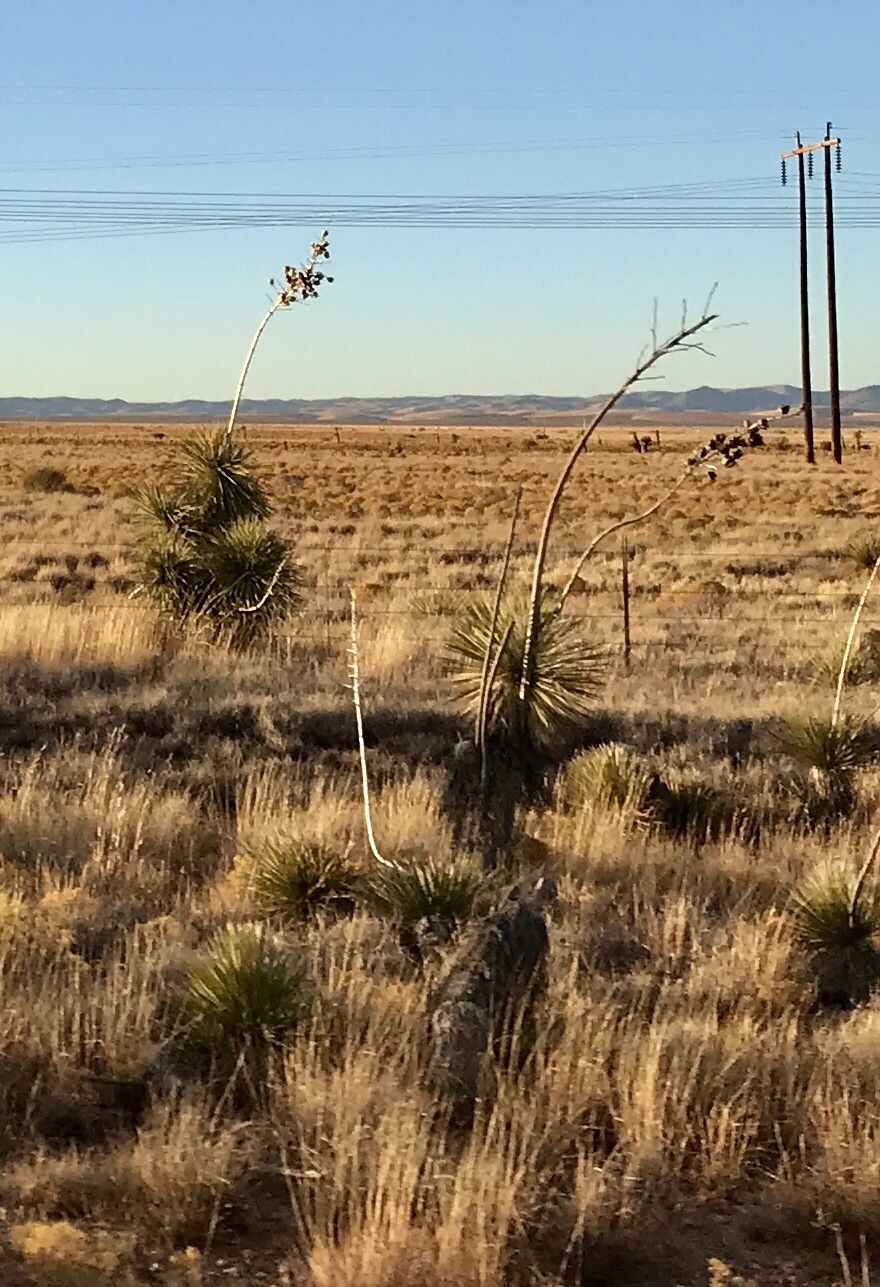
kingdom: Plantae
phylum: Tracheophyta
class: Liliopsida
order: Asparagales
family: Asparagaceae
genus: Yucca
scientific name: Yucca elata
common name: Palmella
